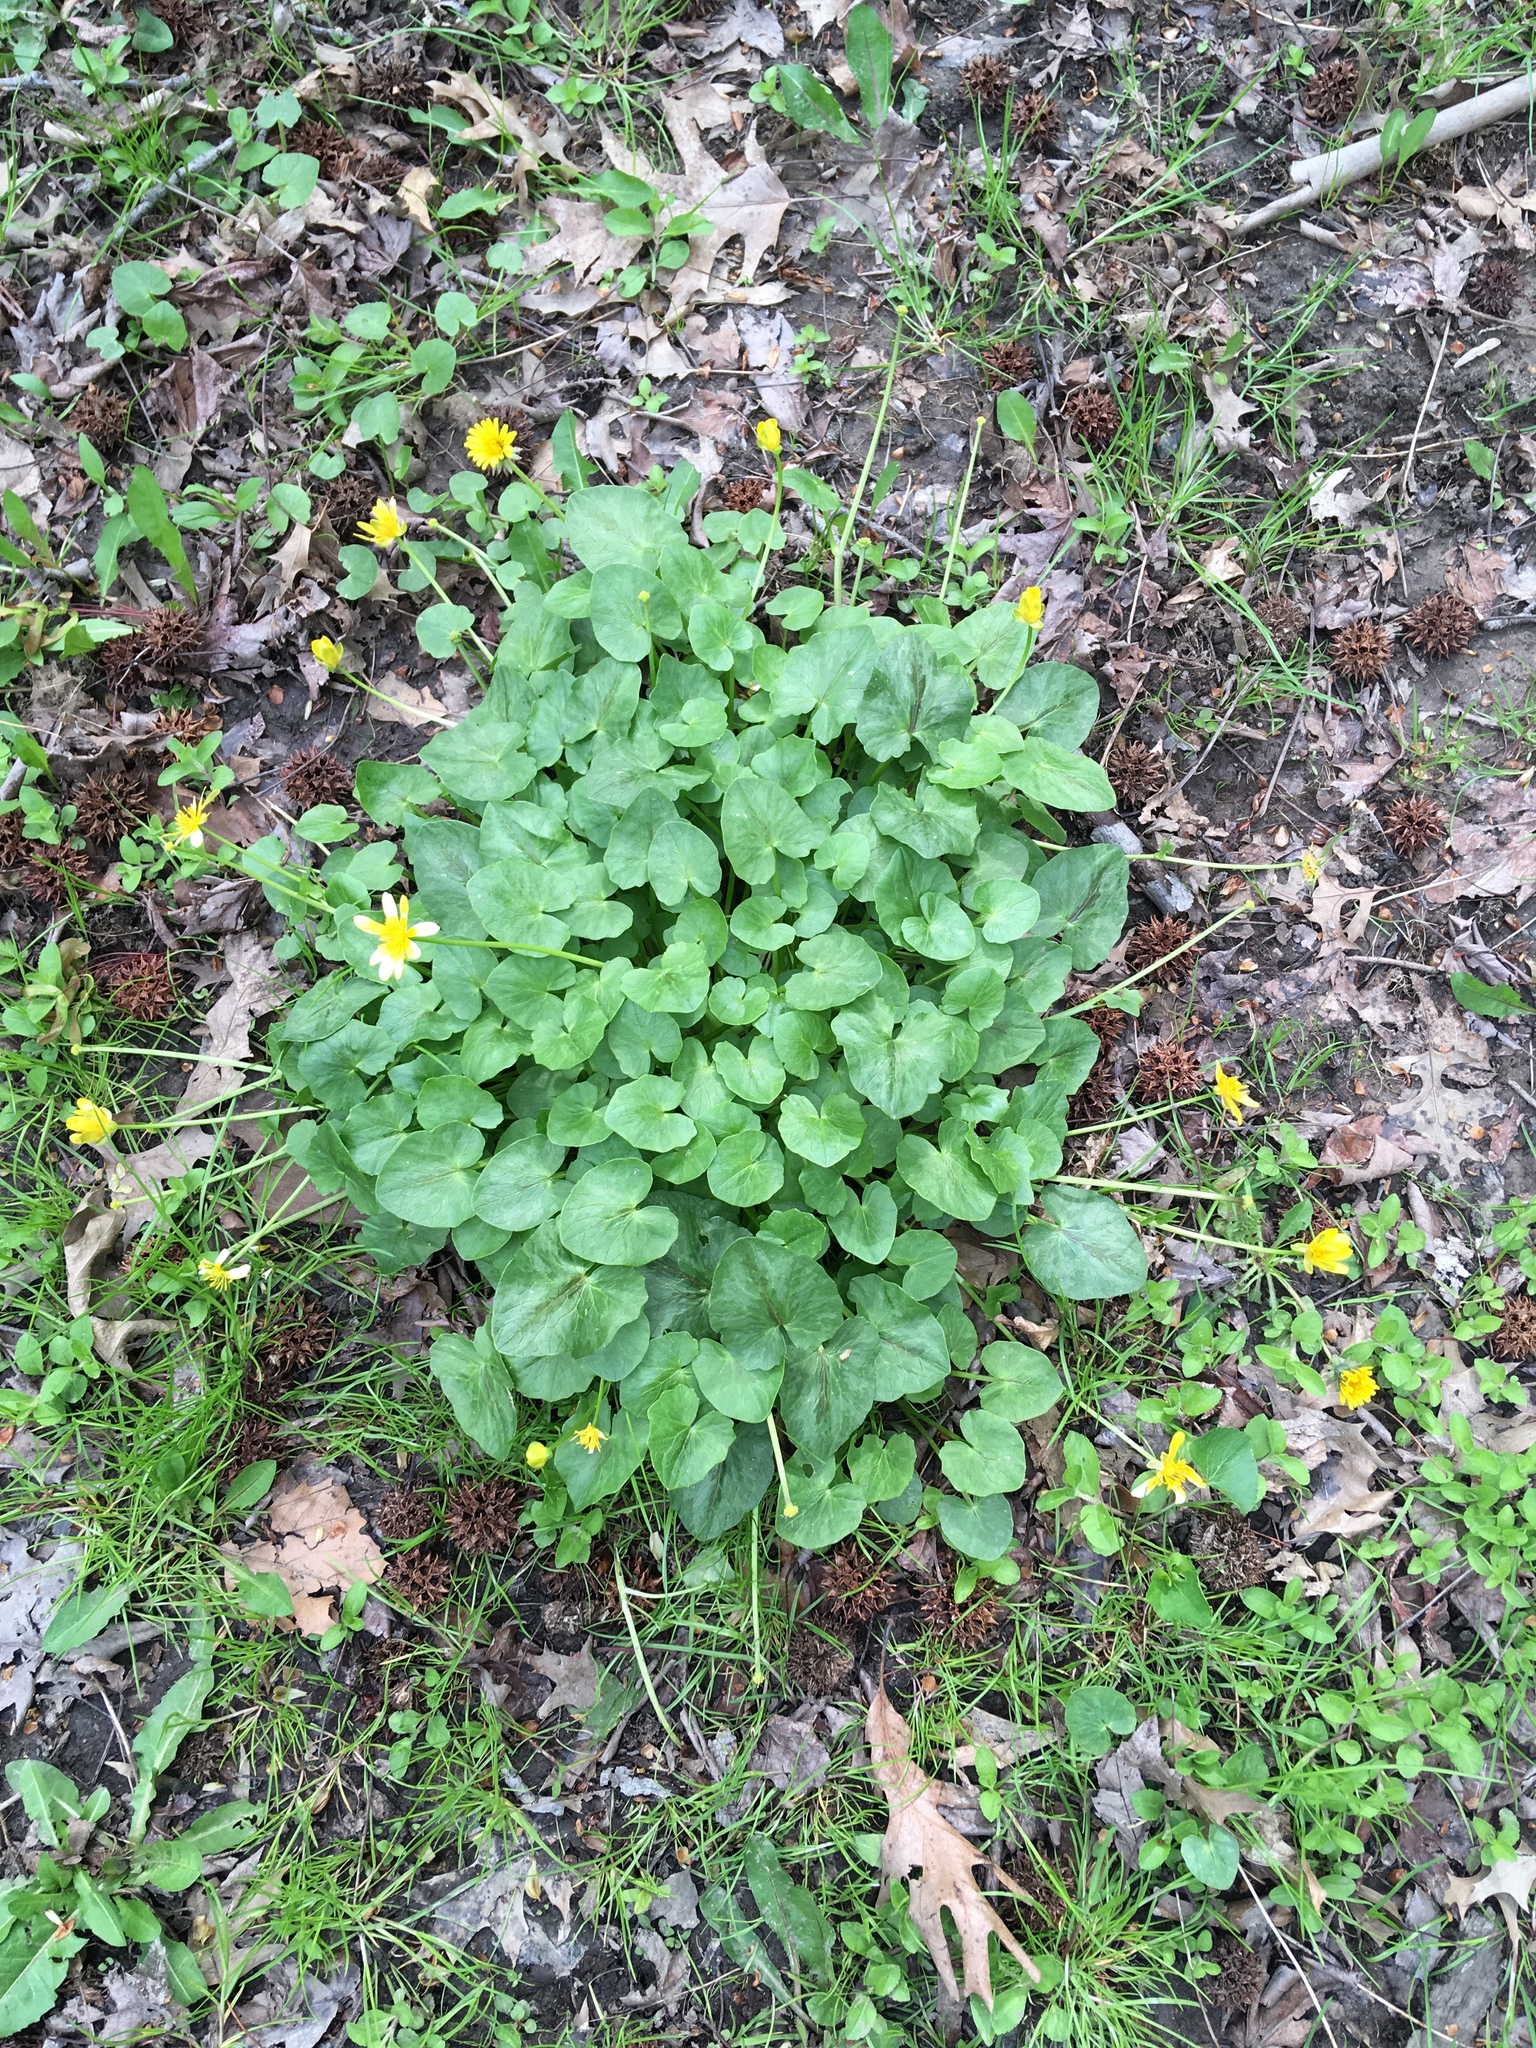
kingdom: Plantae
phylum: Tracheophyta
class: Magnoliopsida
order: Ranunculales
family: Ranunculaceae
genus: Ficaria
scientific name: Ficaria verna
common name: Lesser celandine
